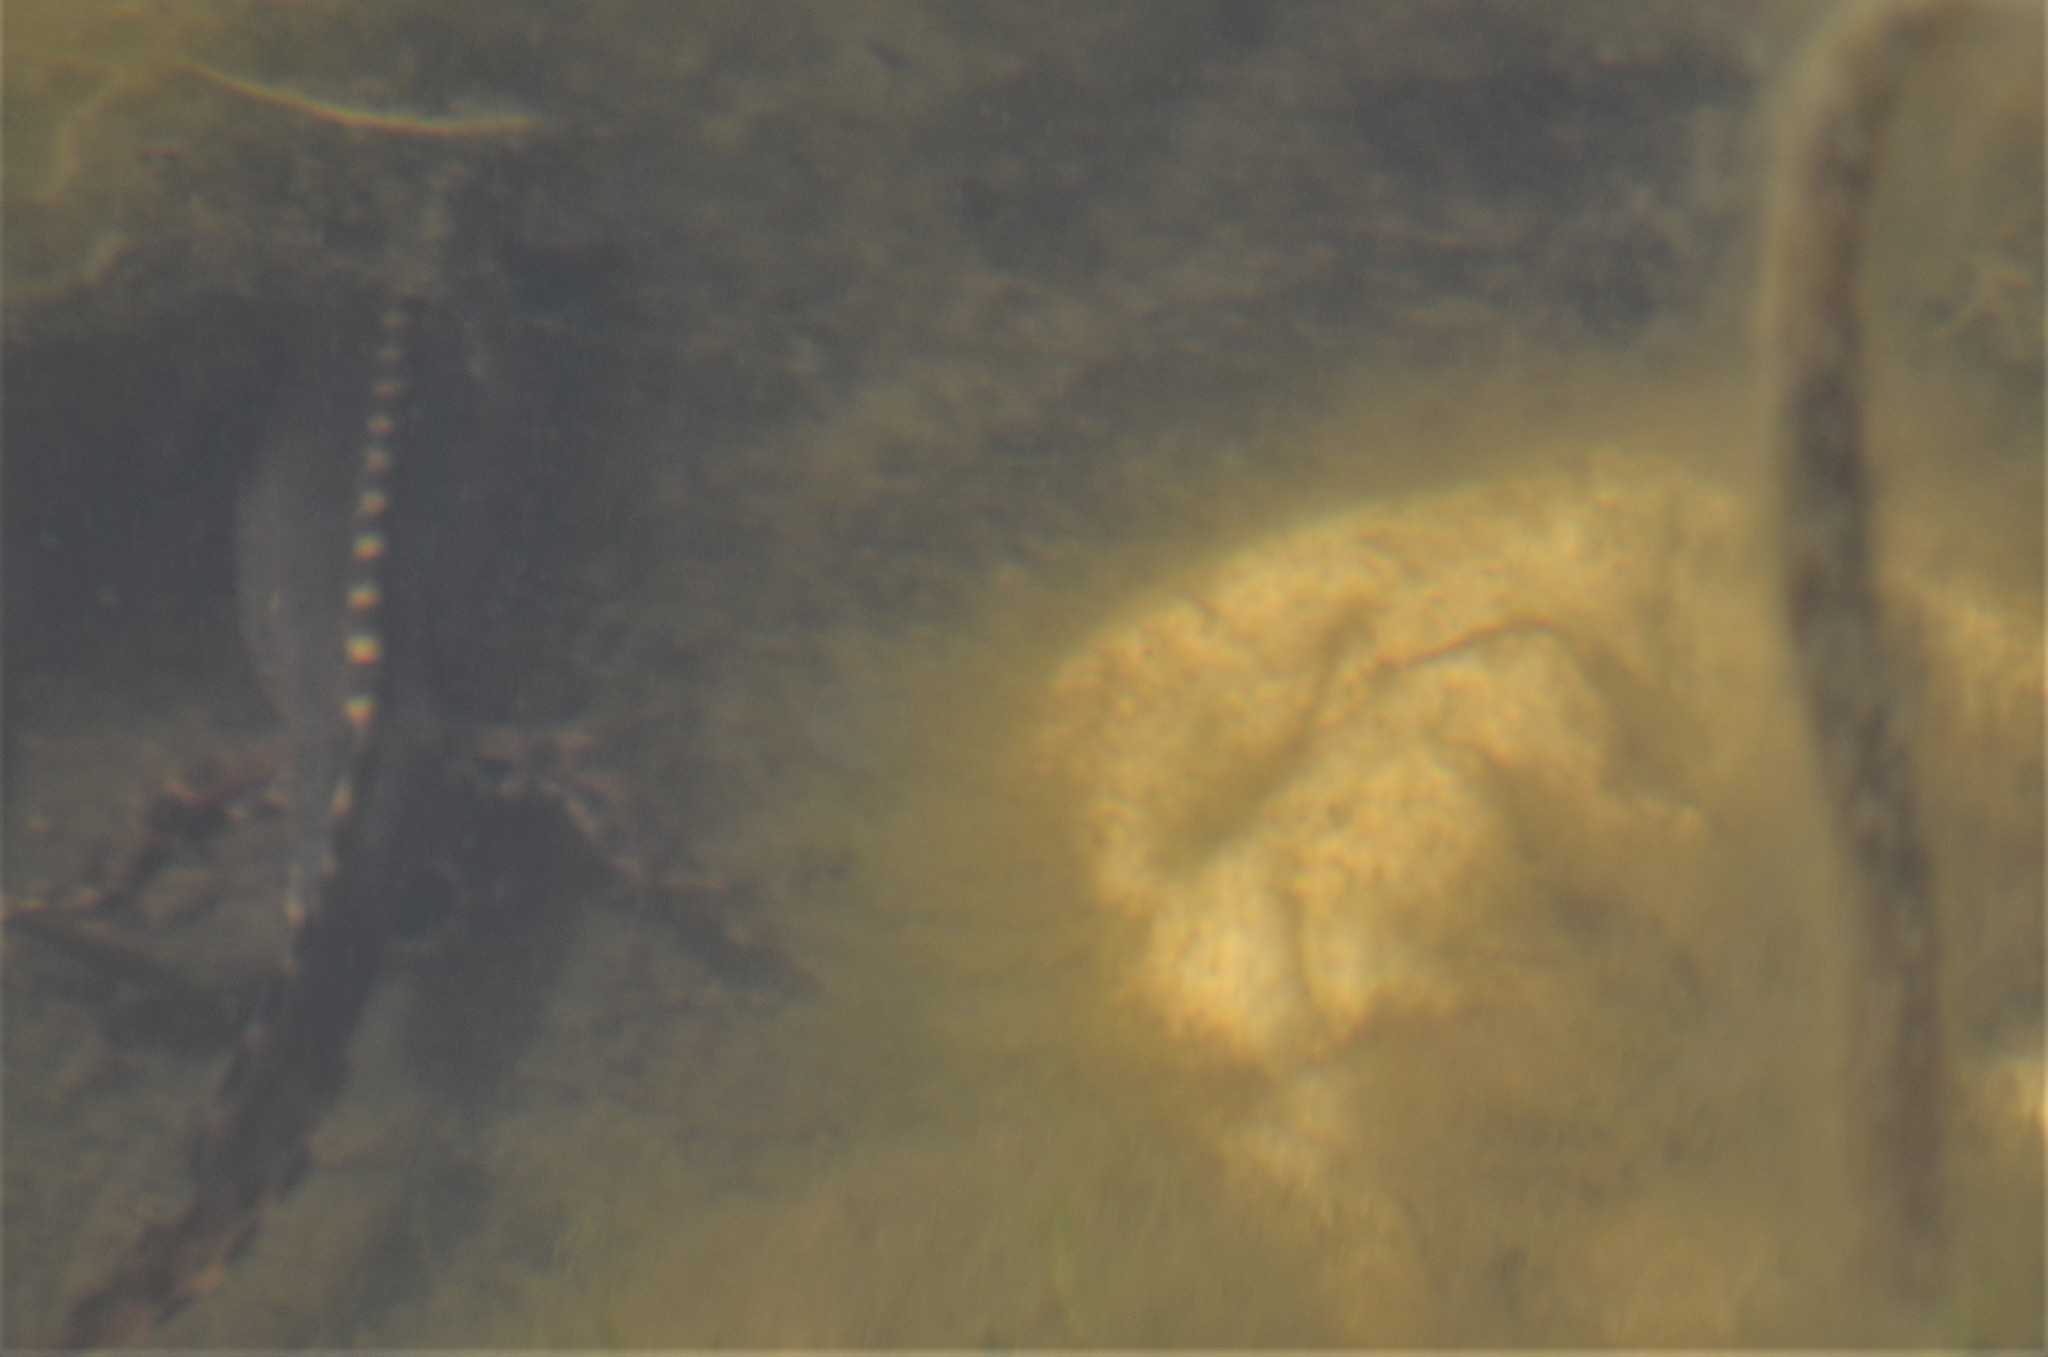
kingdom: Animalia
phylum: Chordata
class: Amphibia
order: Caudata
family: Salamandridae
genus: Ichthyosaura
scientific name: Ichthyosaura alpestris
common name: Alpine newt
